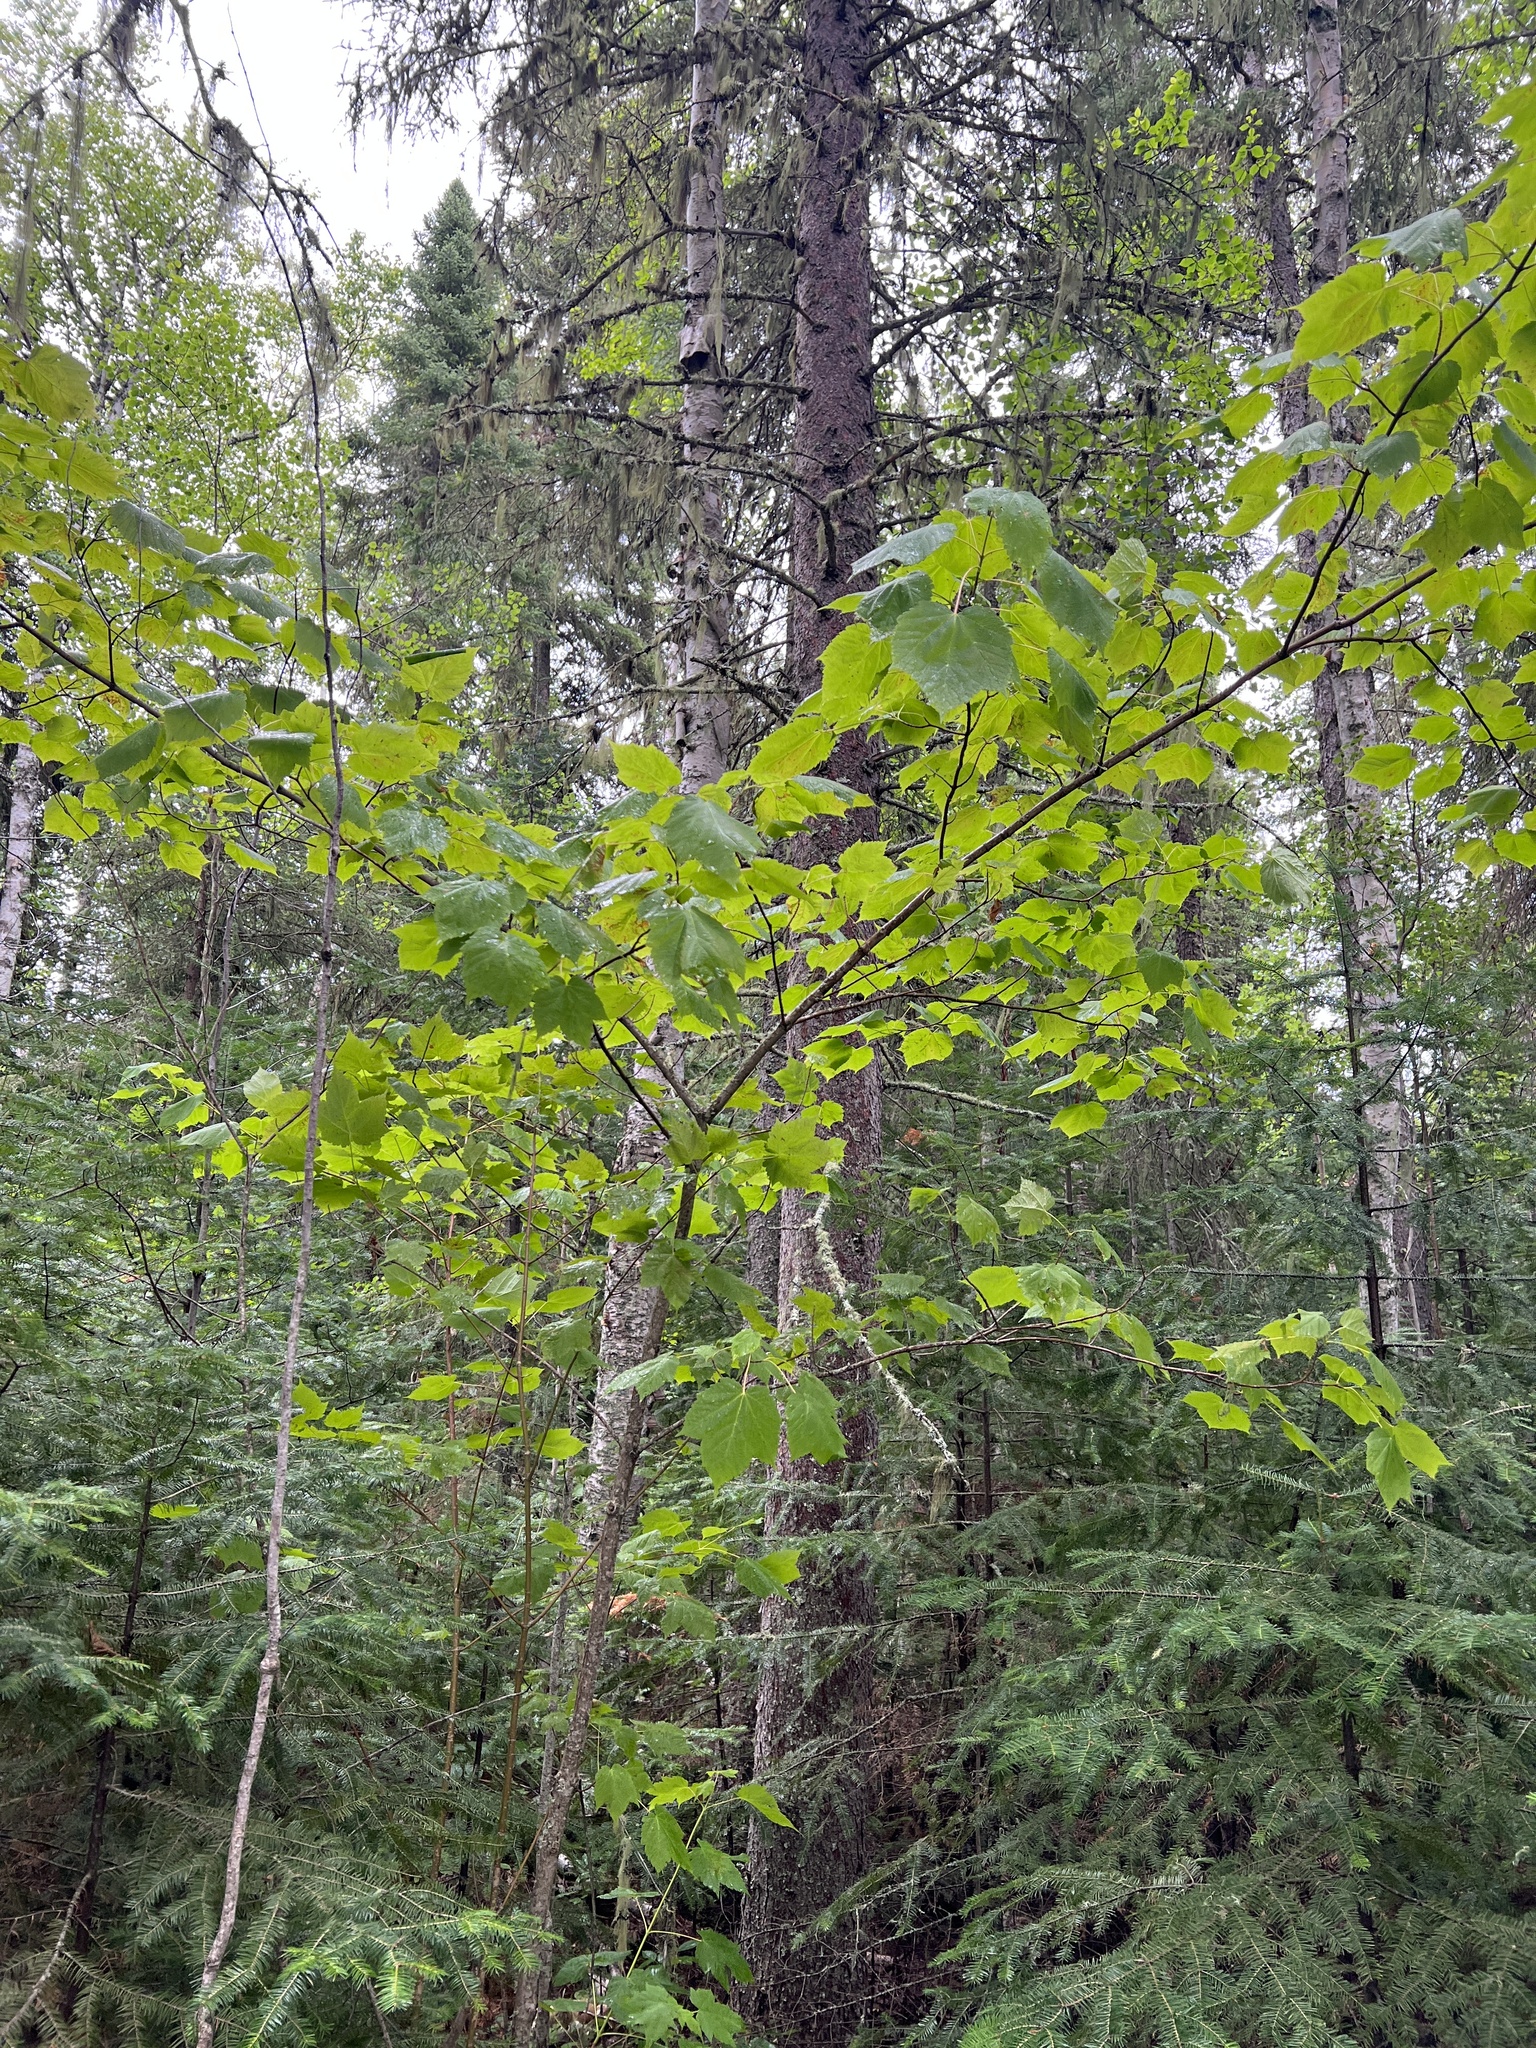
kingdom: Plantae
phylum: Tracheophyta
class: Magnoliopsida
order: Sapindales
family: Sapindaceae
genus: Acer
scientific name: Acer spicatum
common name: Mountain maple
